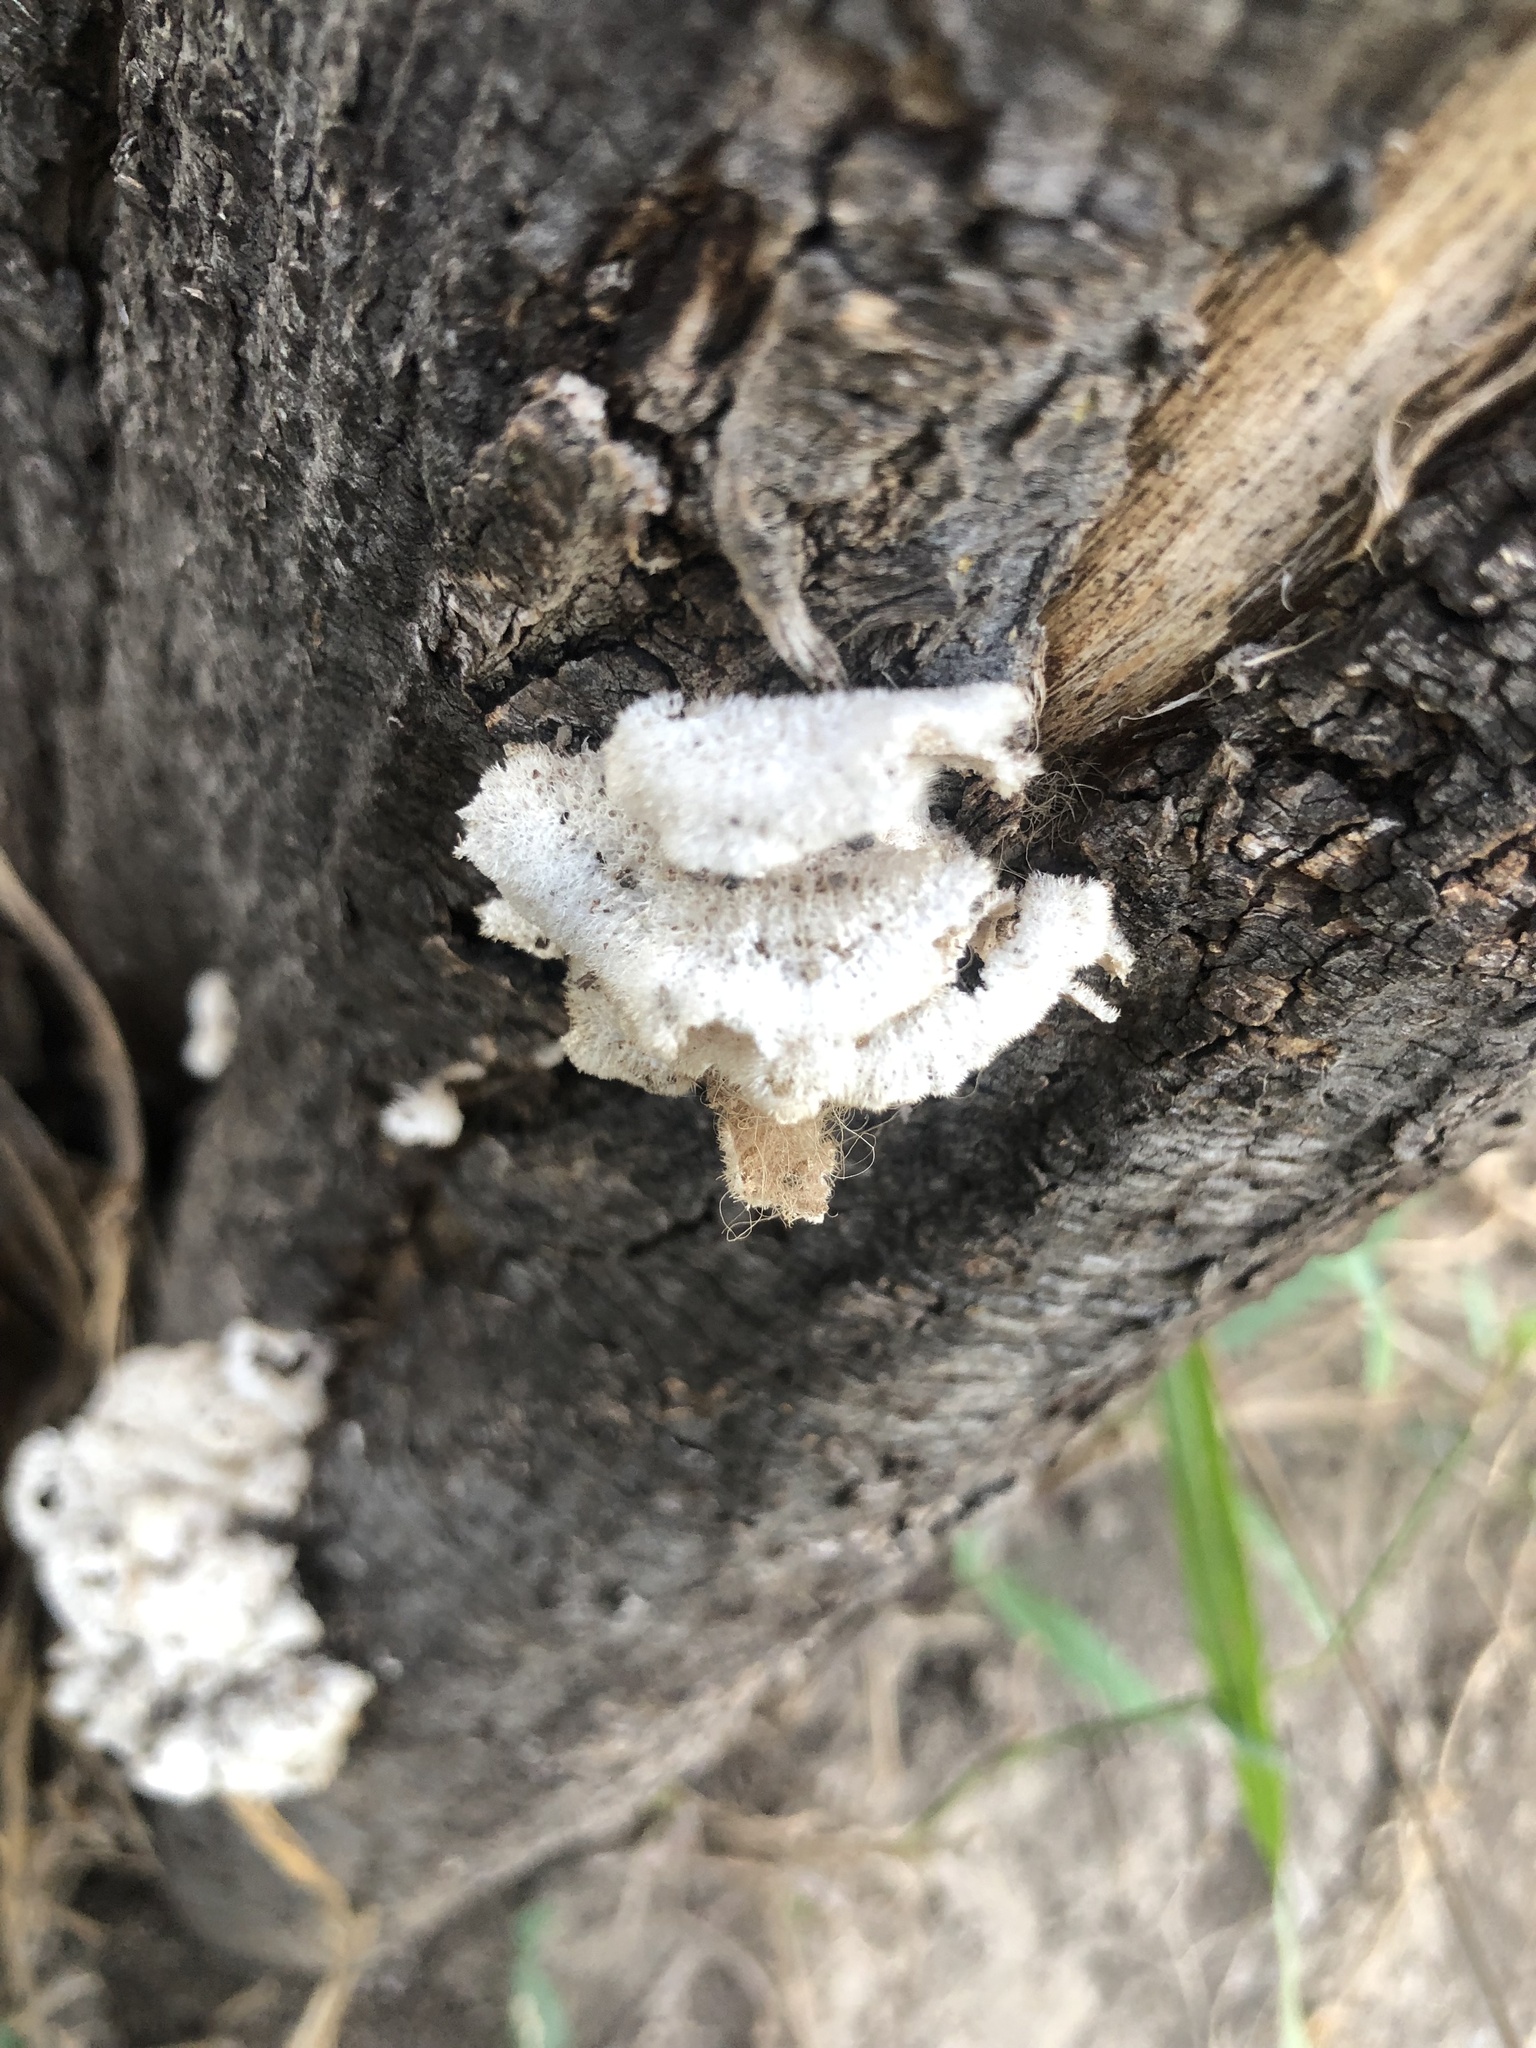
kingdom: Fungi
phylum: Basidiomycota
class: Agaricomycetes
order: Agaricales
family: Schizophyllaceae
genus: Schizophyllum
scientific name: Schizophyllum commune
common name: Common porecrust
